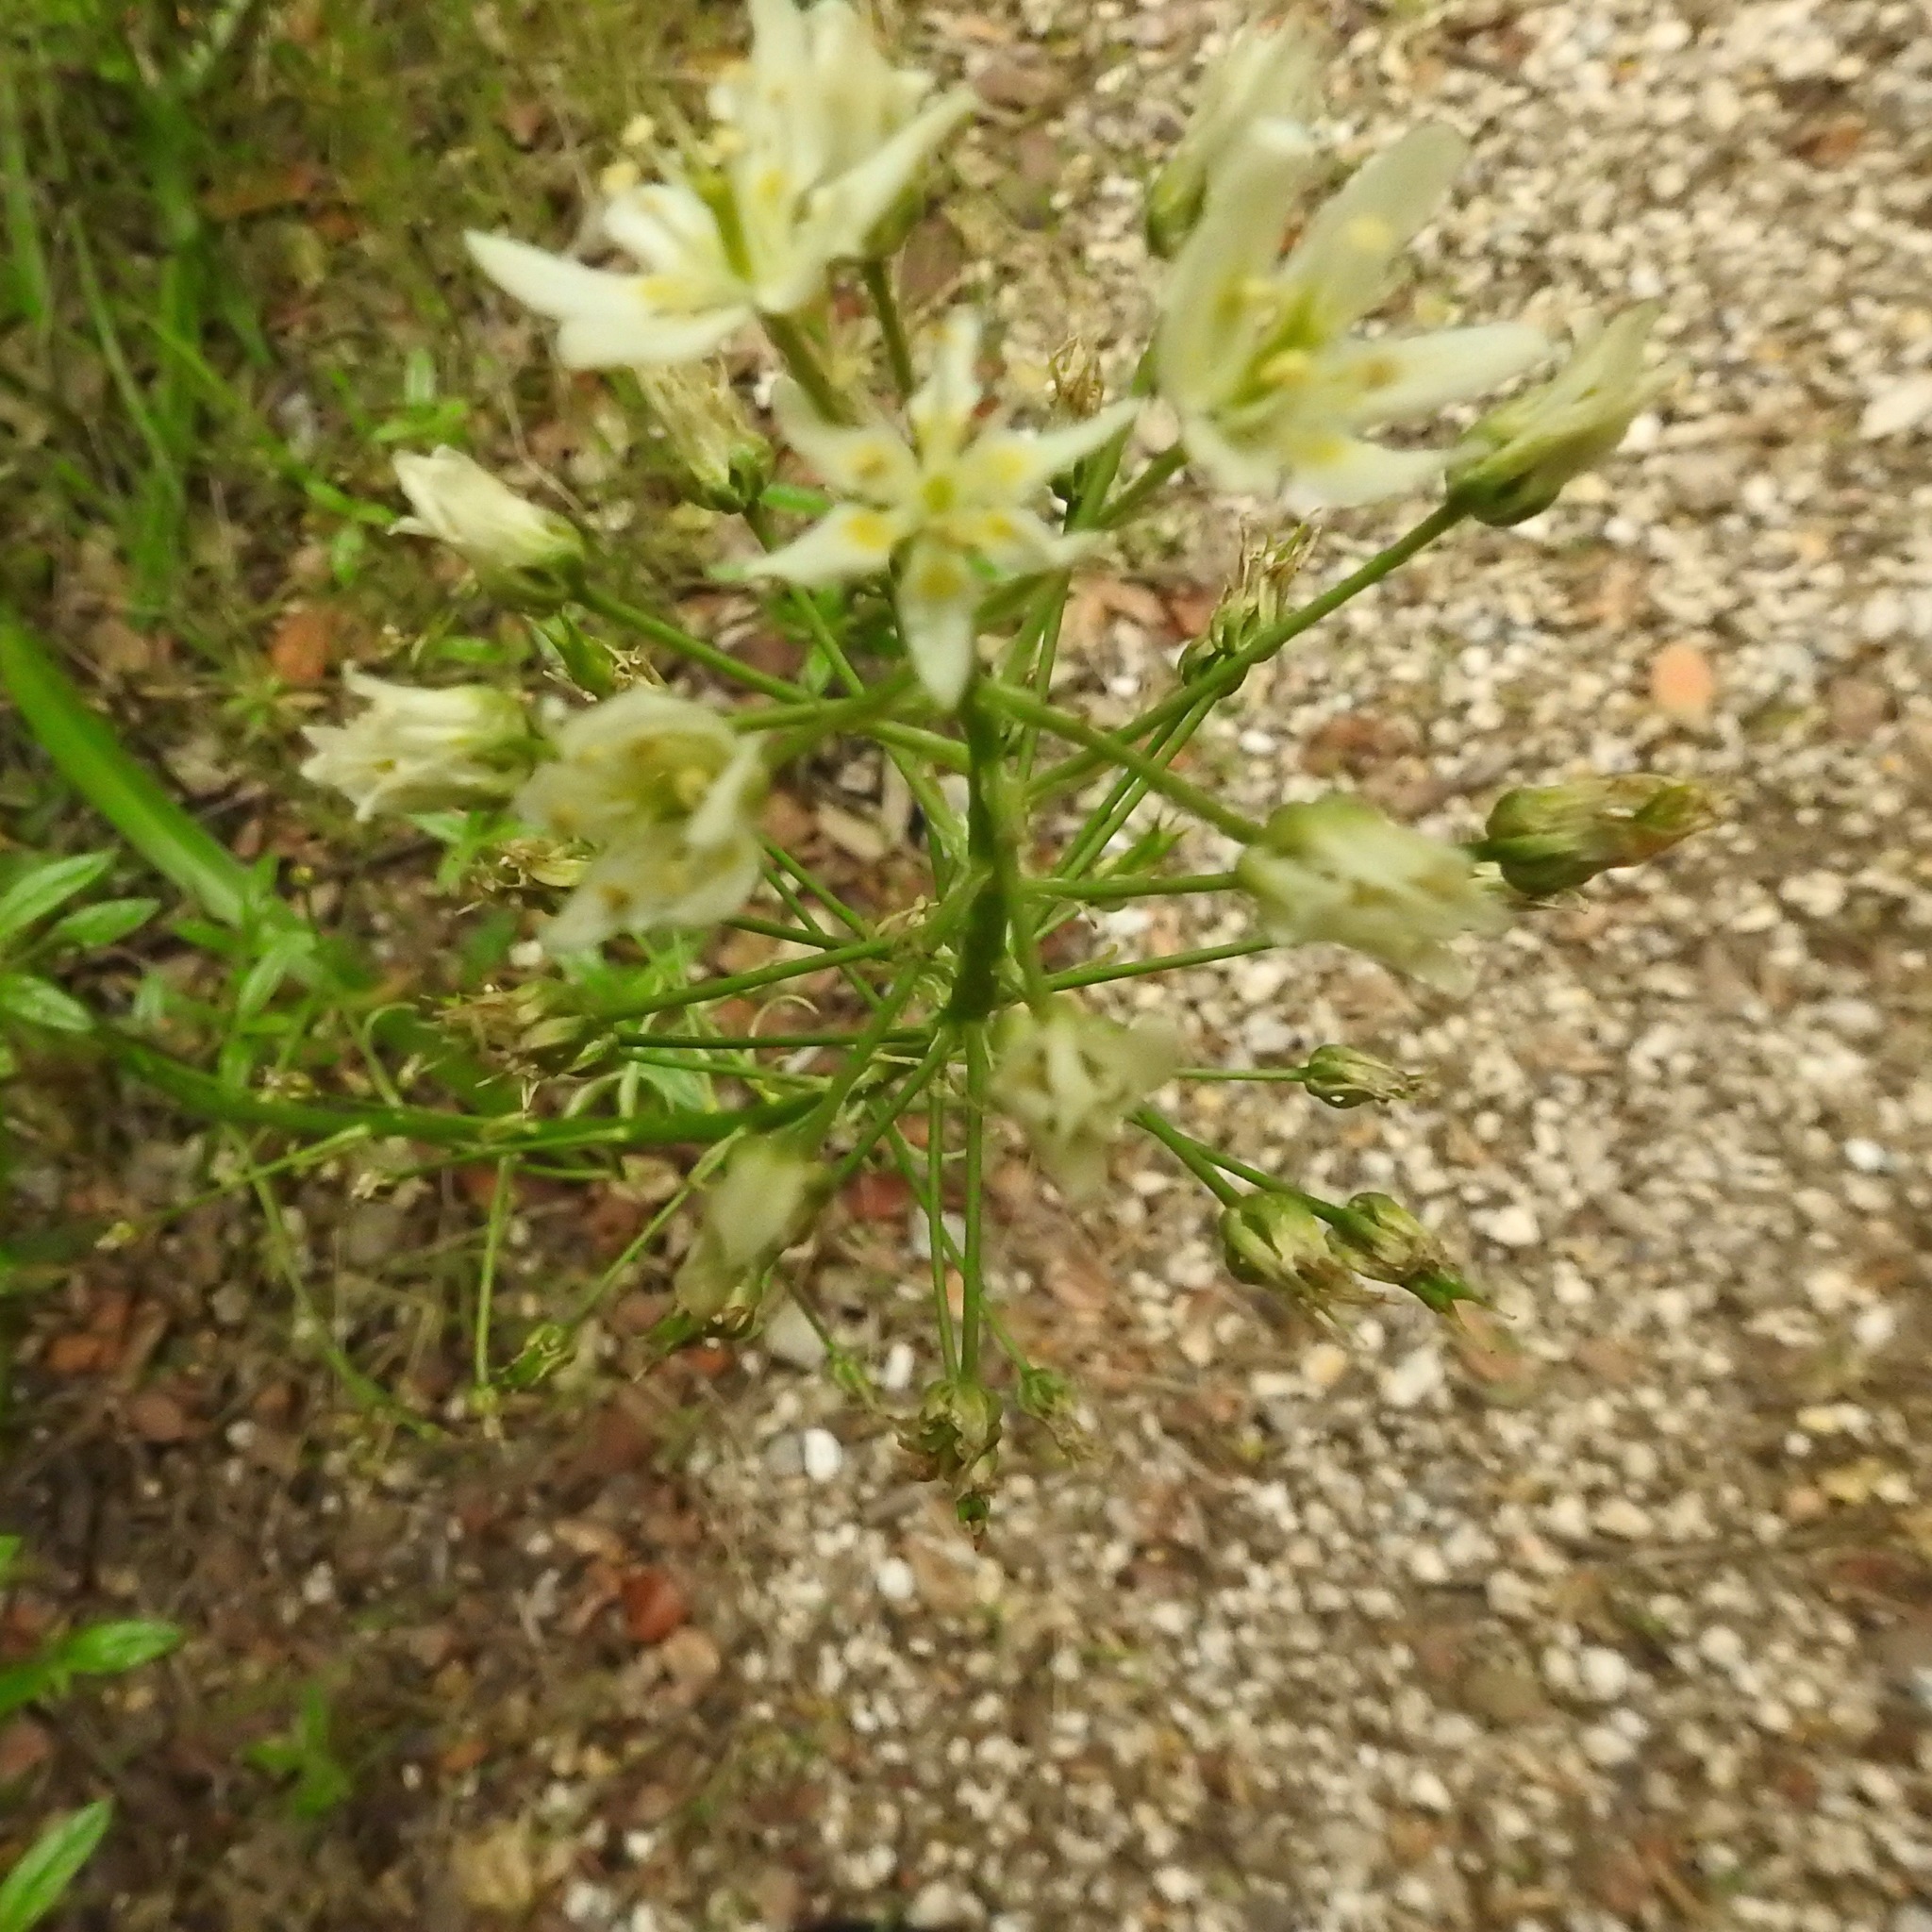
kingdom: Plantae
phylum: Tracheophyta
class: Liliopsida
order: Liliales
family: Melanthiaceae
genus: Toxicoscordion
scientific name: Toxicoscordion fremontii
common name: Fremont's death camas
